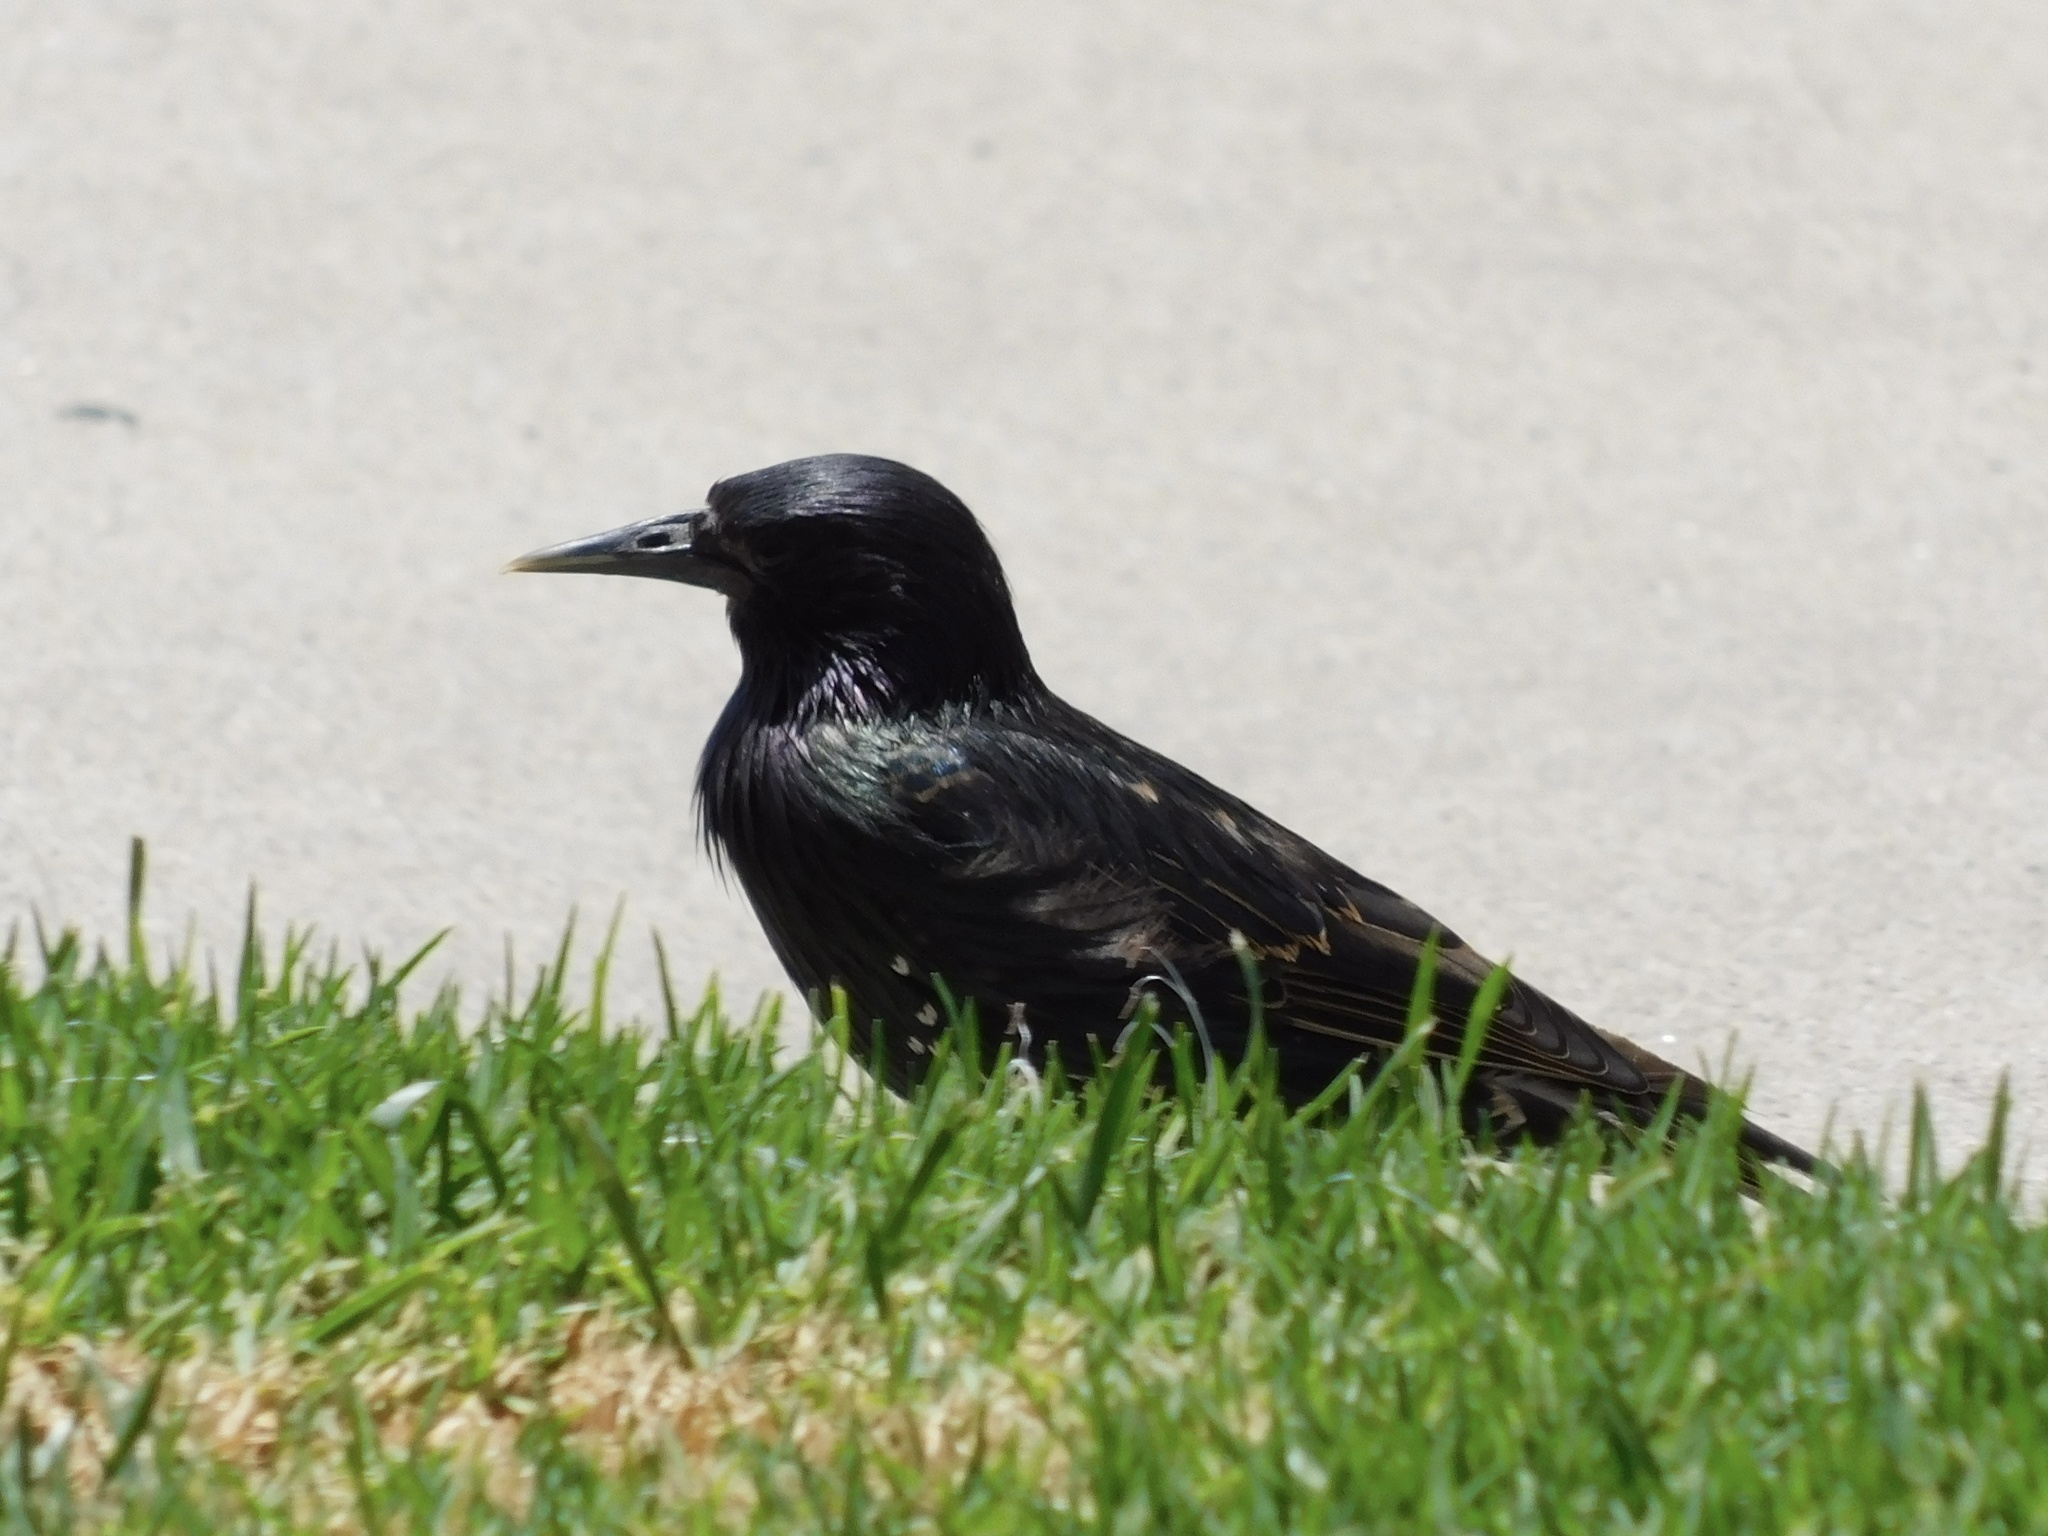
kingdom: Animalia
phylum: Chordata
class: Aves
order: Passeriformes
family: Sturnidae
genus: Sturnus
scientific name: Sturnus vulgaris
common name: Common starling
